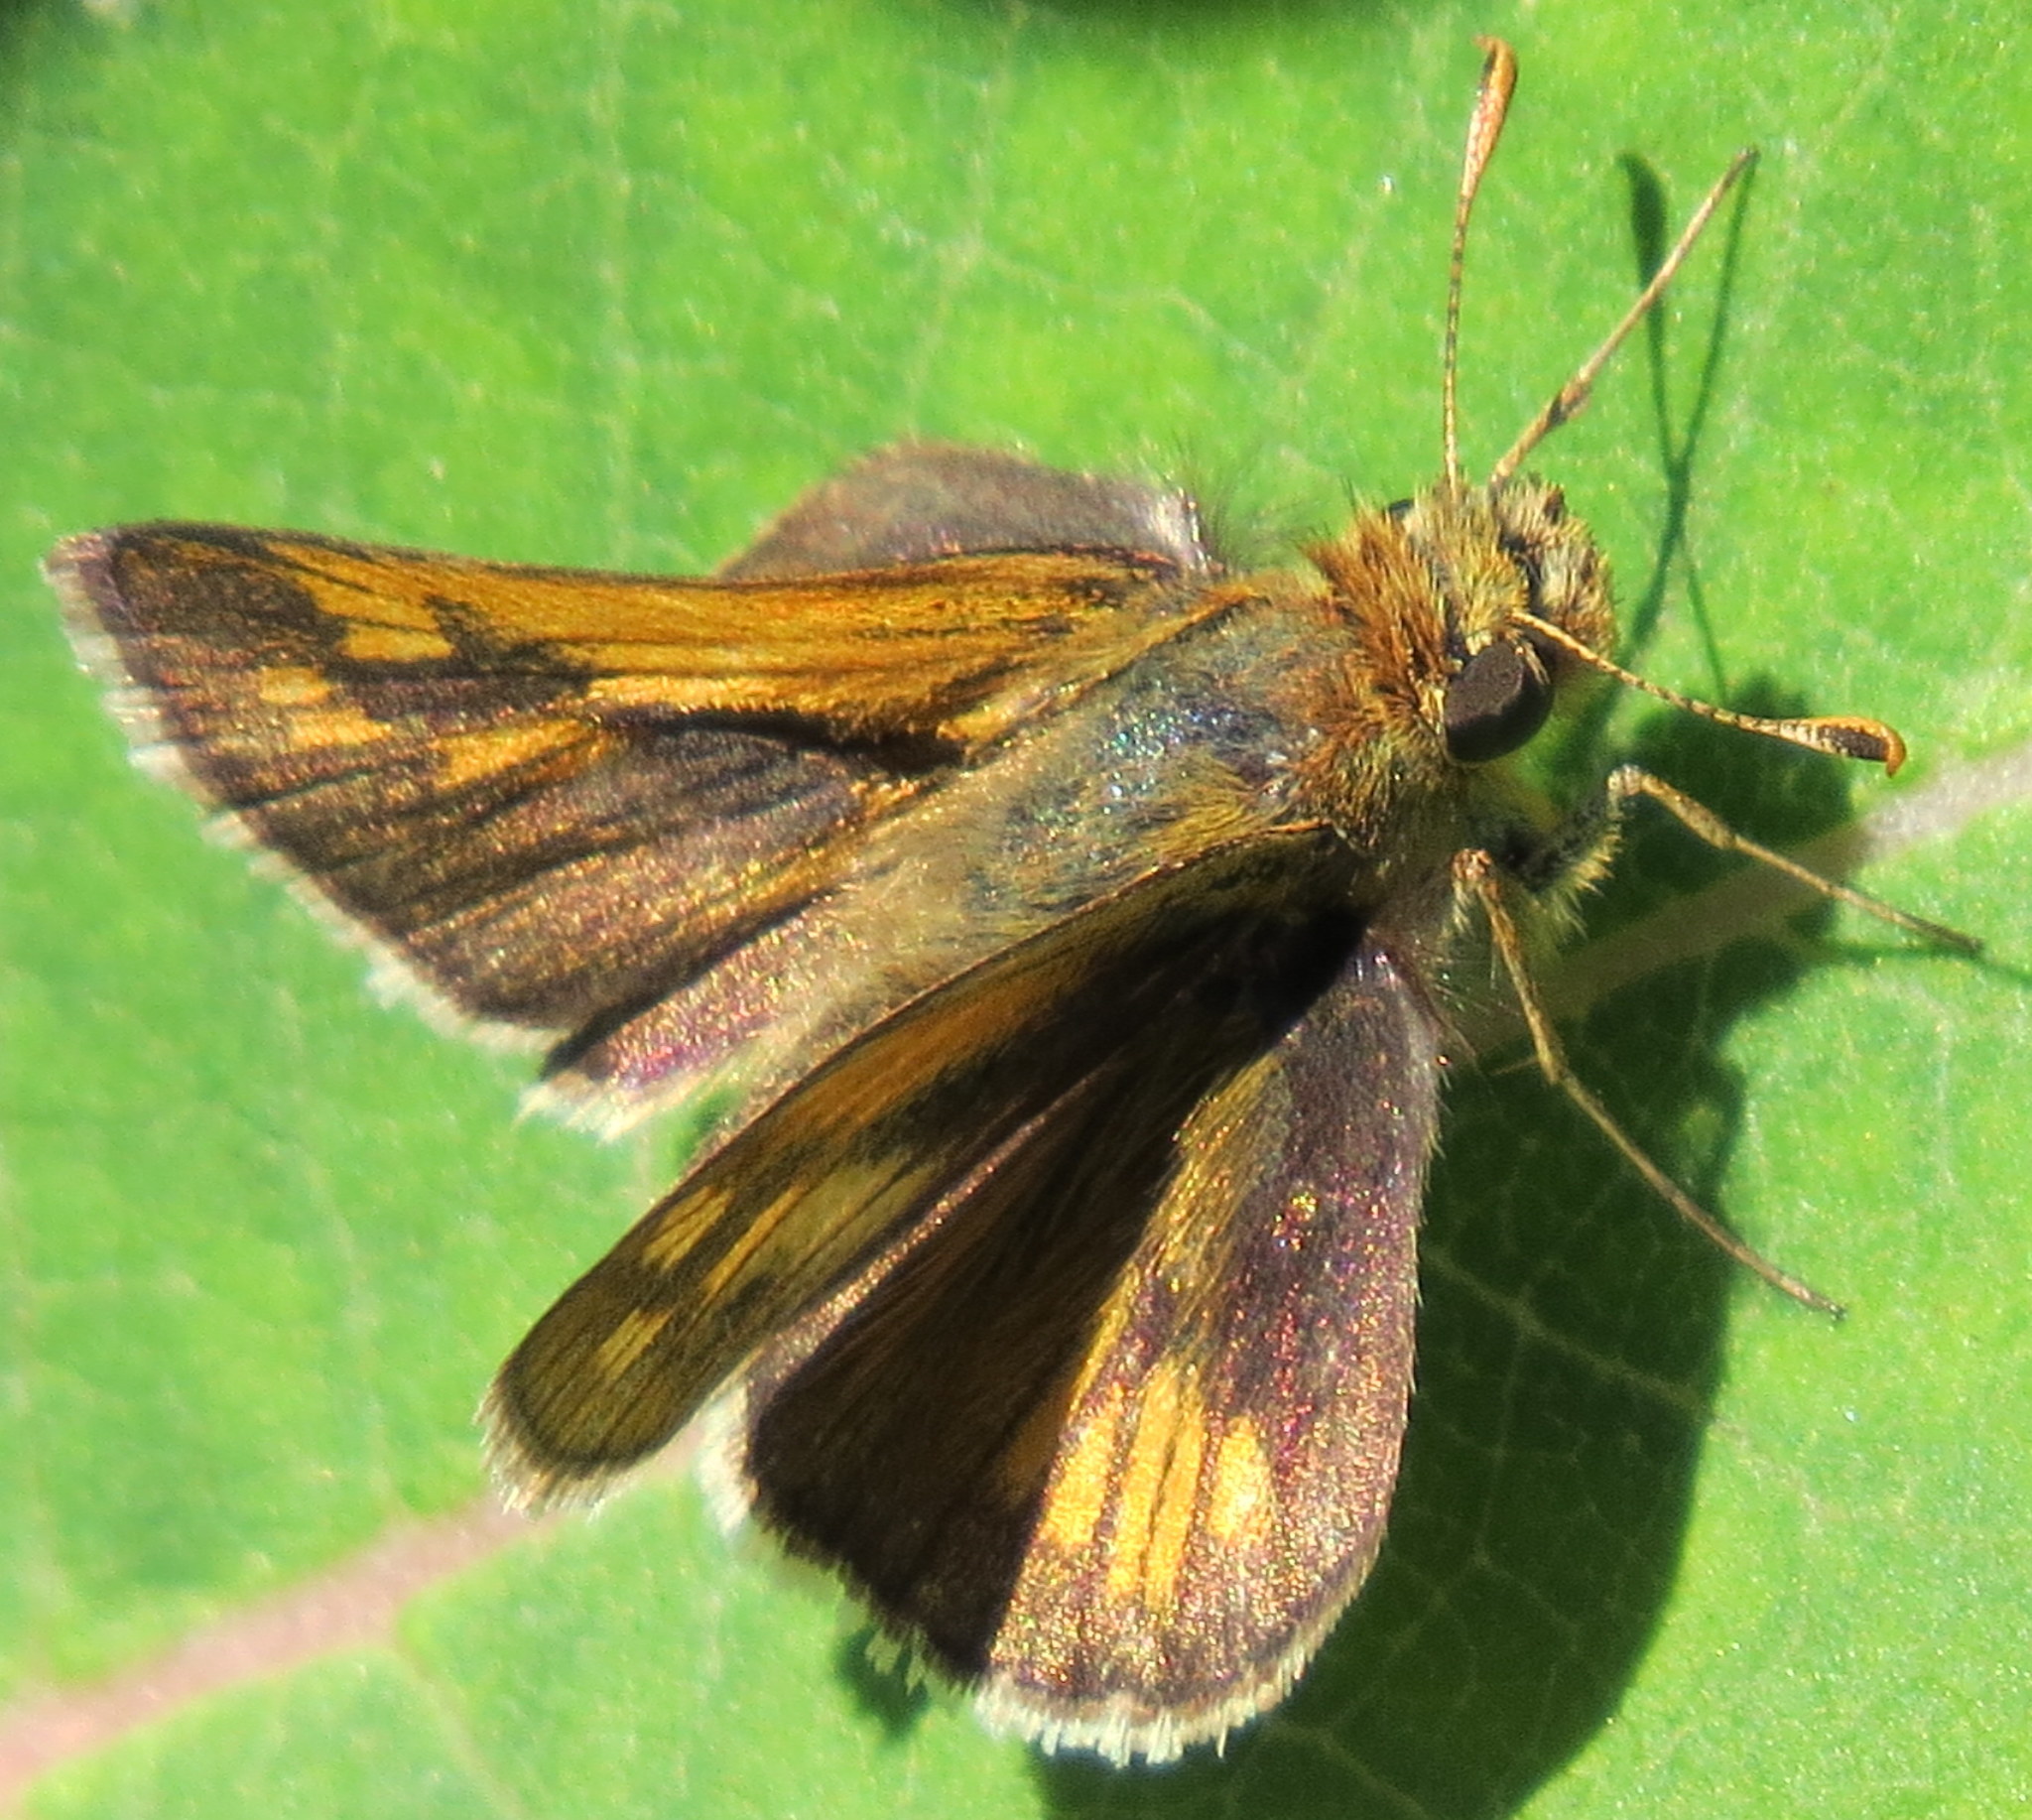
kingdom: Animalia
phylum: Arthropoda
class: Insecta
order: Lepidoptera
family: Hesperiidae
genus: Polites
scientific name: Polites coras
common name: Peck's skipper
